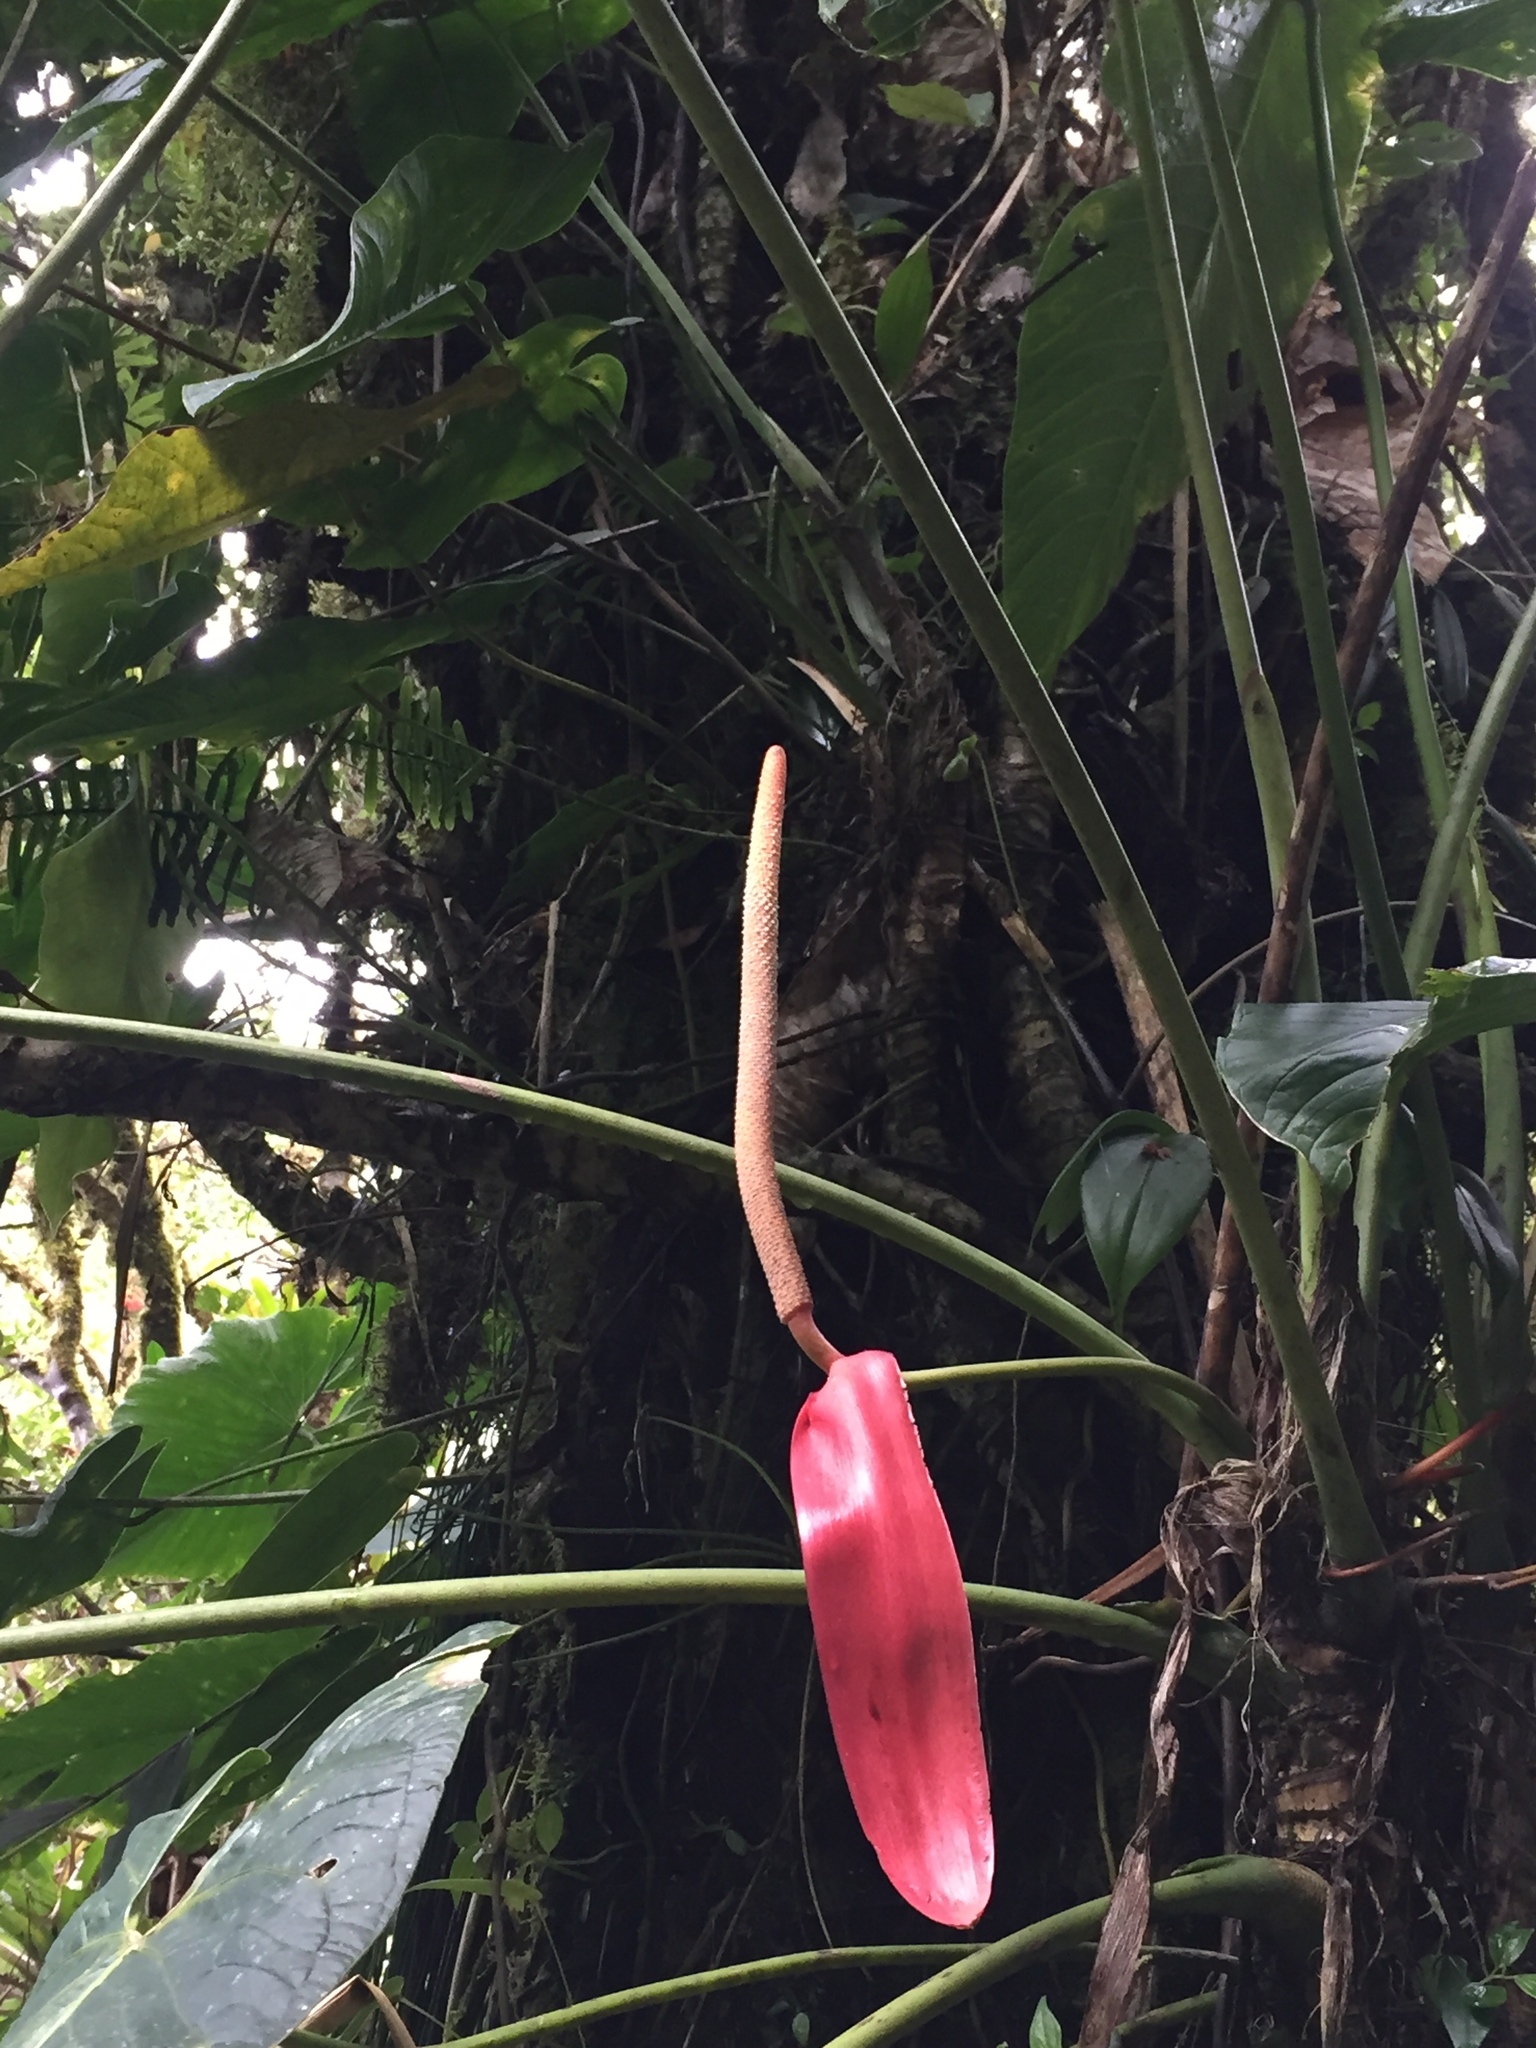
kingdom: Plantae
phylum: Tracheophyta
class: Liliopsida
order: Alismatales
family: Araceae
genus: Anthurium
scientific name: Anthurium bustamanteae
